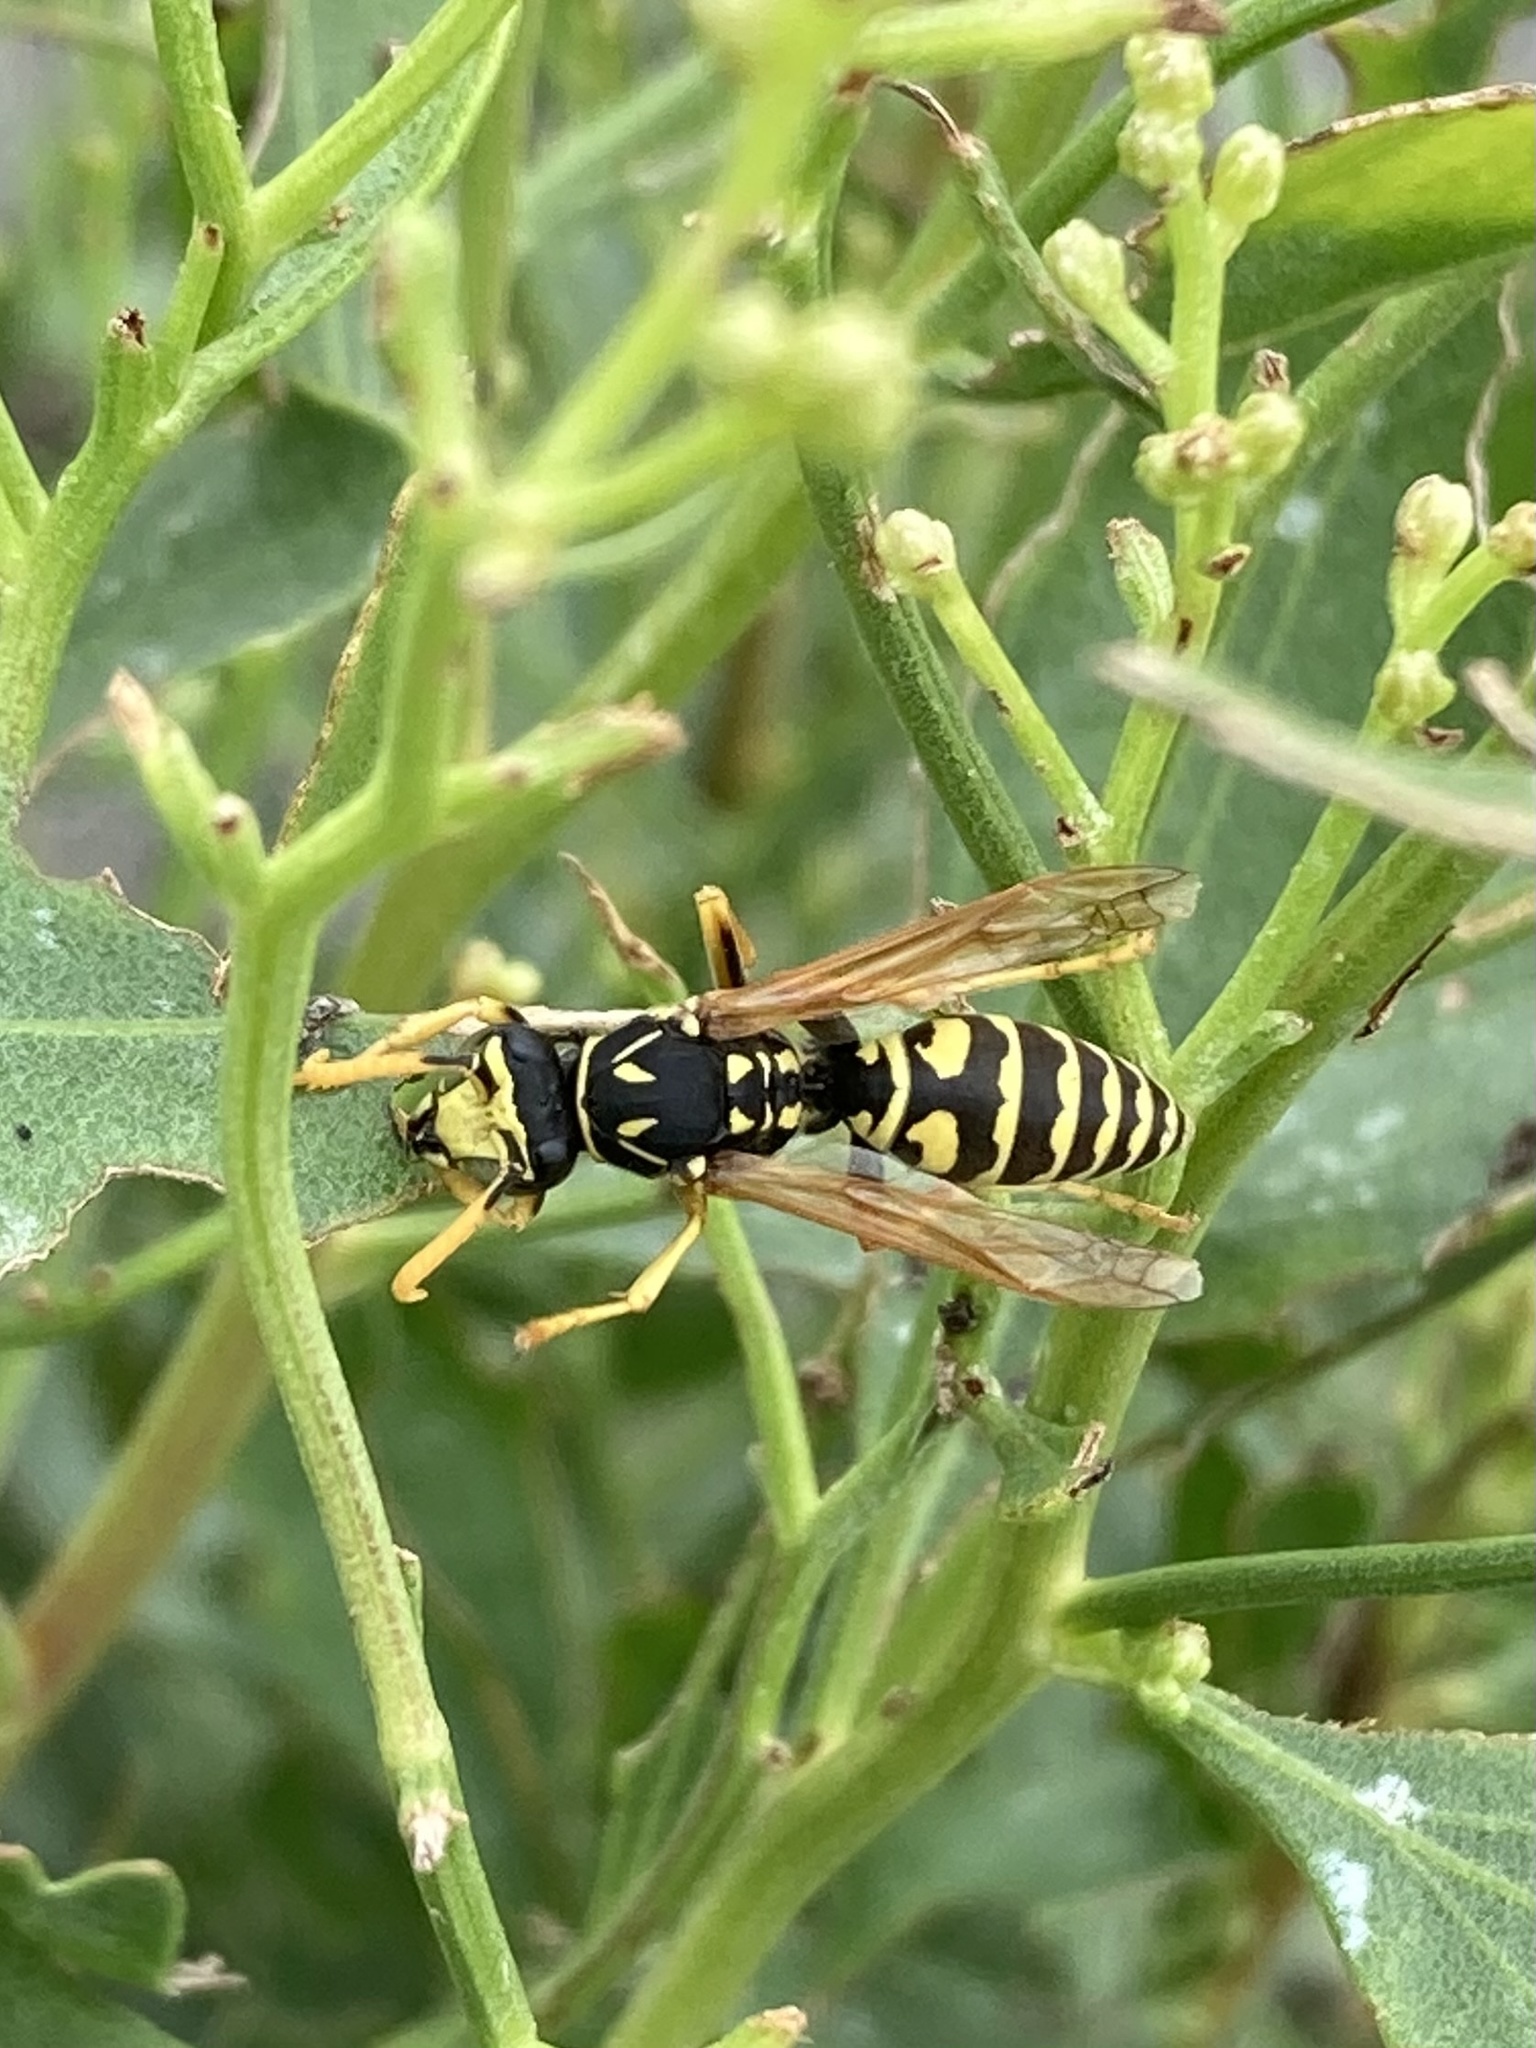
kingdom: Animalia
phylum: Arthropoda
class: Insecta
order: Hymenoptera
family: Eumenidae
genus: Polistes
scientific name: Polistes dominula
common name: Paper wasp
